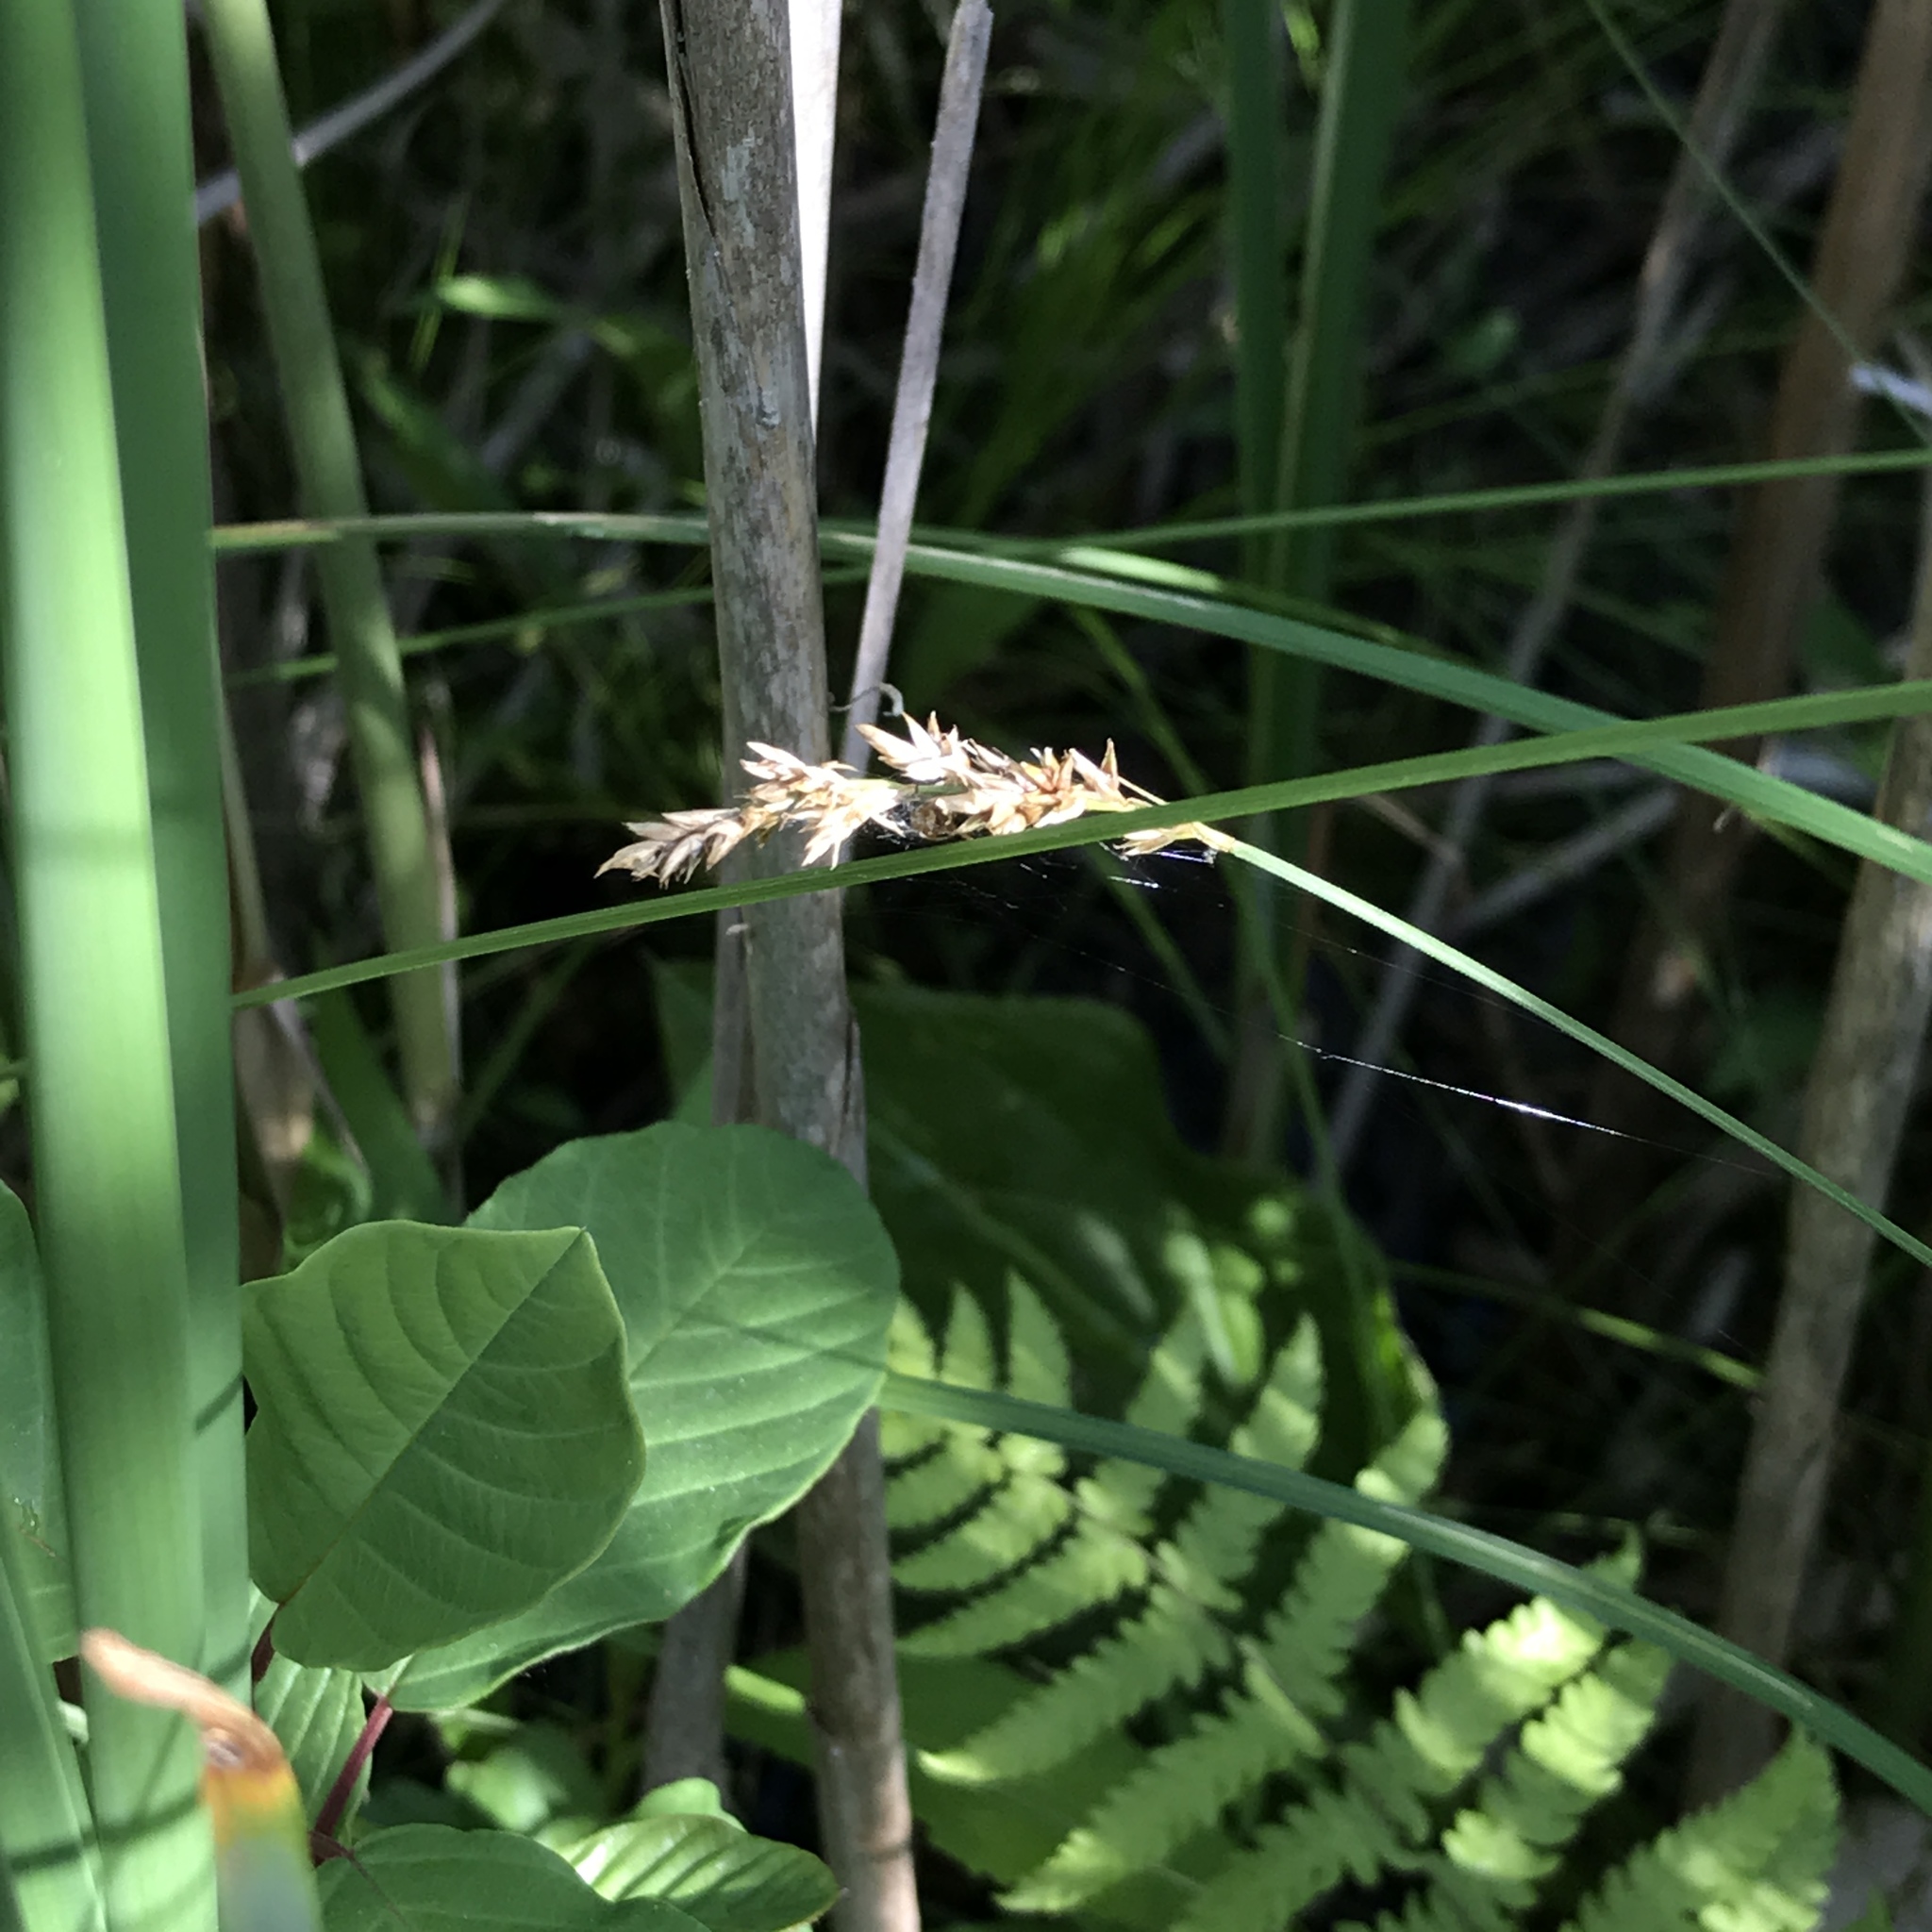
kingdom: Plantae
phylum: Tracheophyta
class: Liliopsida
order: Poales
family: Cyperaceae
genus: Carex
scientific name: Carex prairea
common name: Prairie sedge
